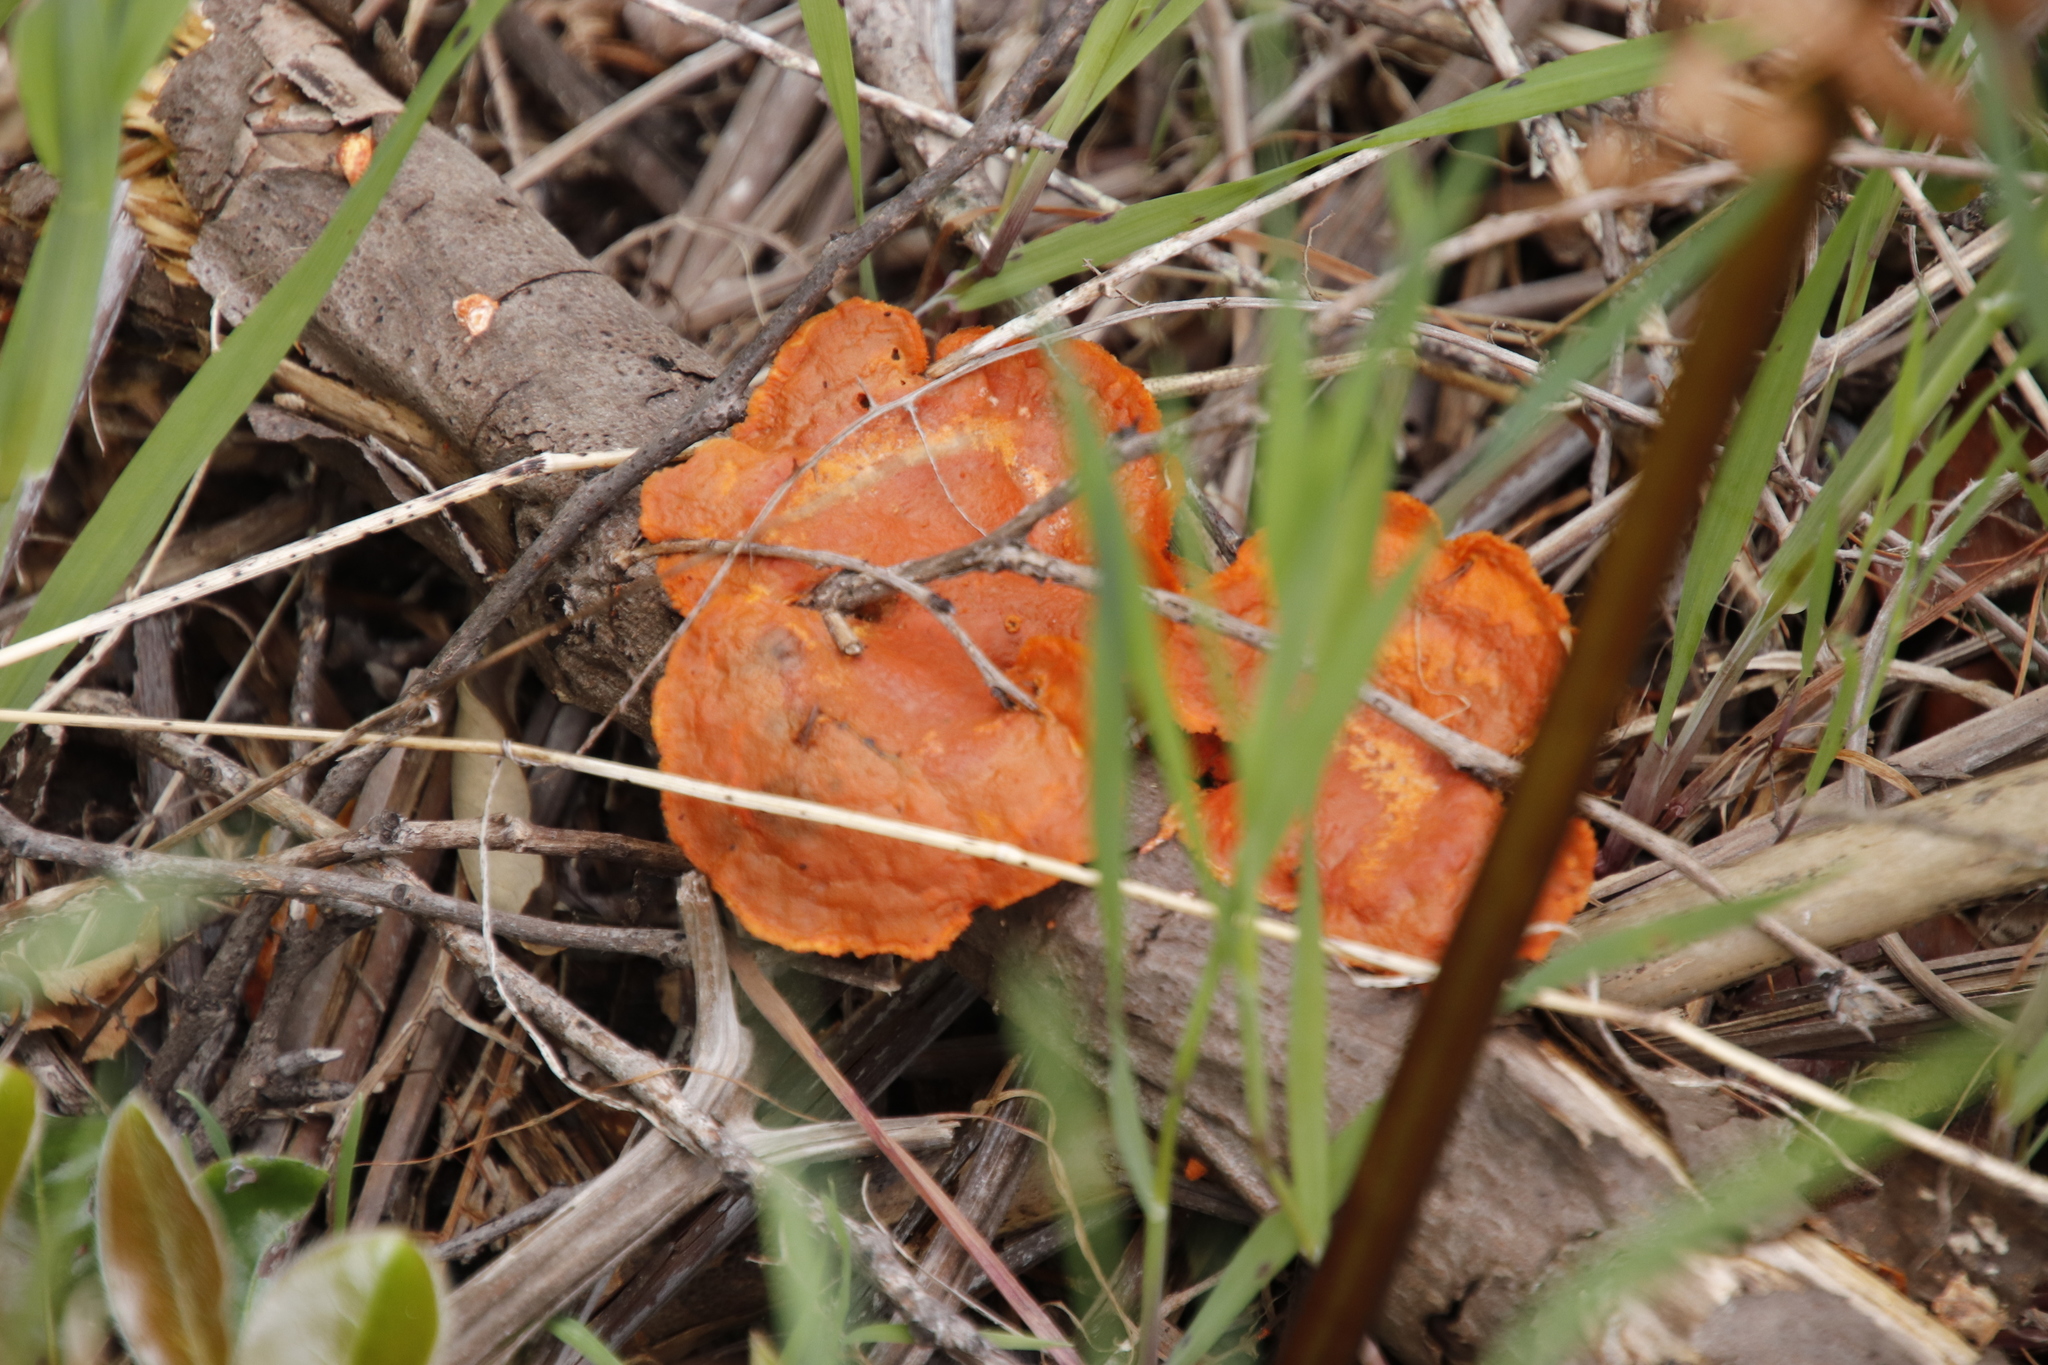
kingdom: Fungi
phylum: Basidiomycota
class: Agaricomycetes
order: Polyporales
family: Polyporaceae
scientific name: Polyporaceae
